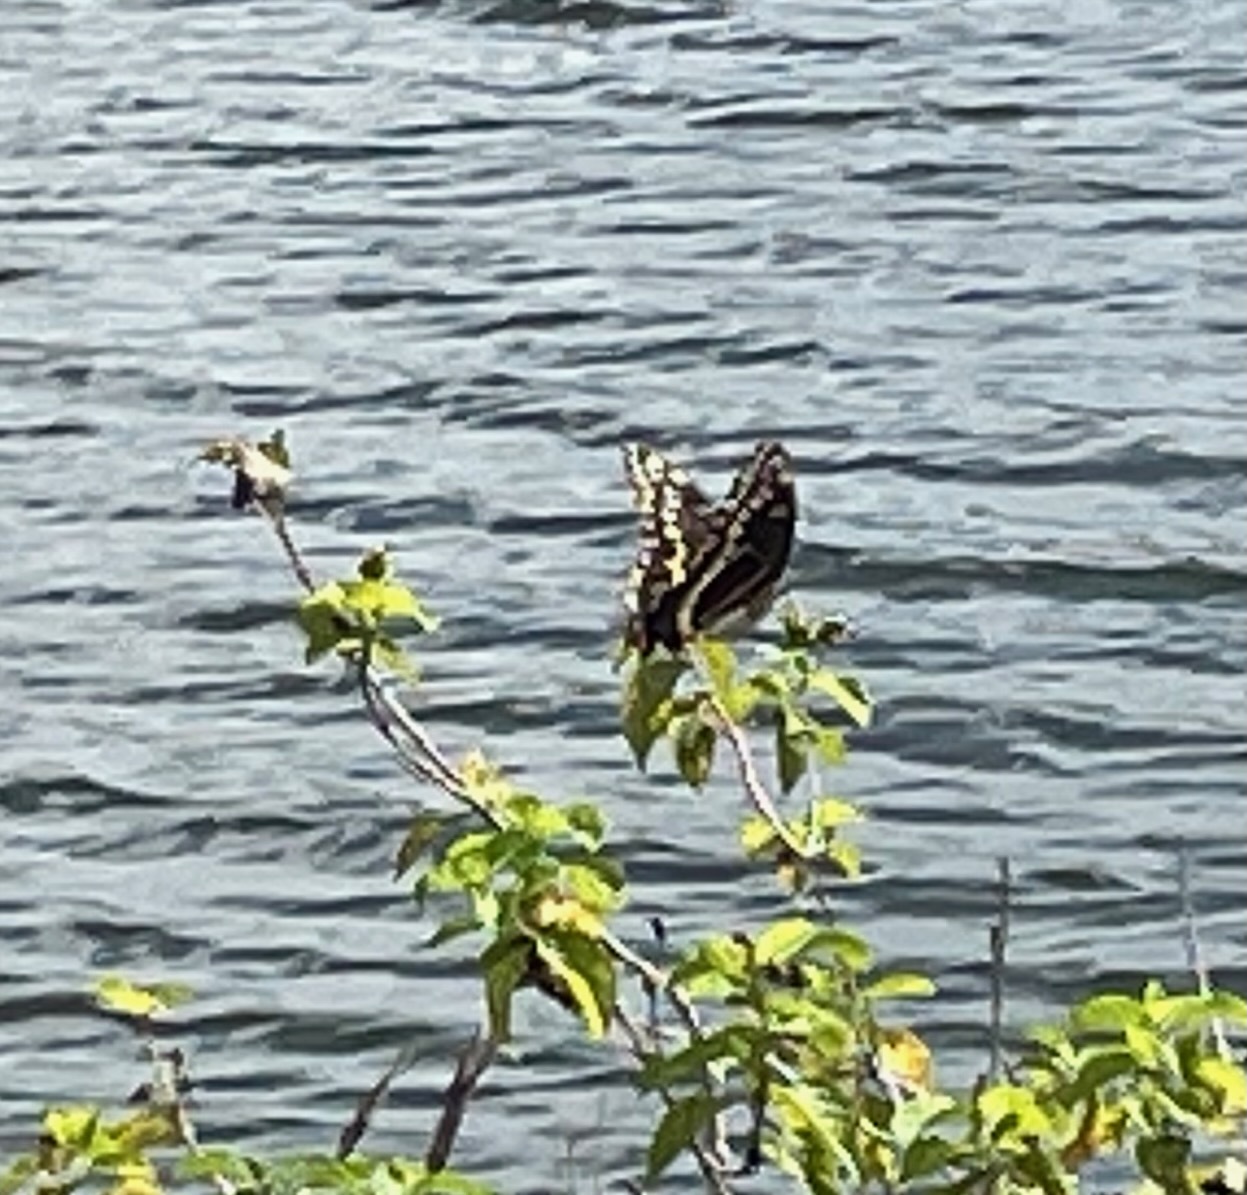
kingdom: Animalia
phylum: Arthropoda
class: Insecta
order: Lepidoptera
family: Papilionidae
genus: Papilio
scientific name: Papilio palamedes
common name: Palamedes swallowtail
